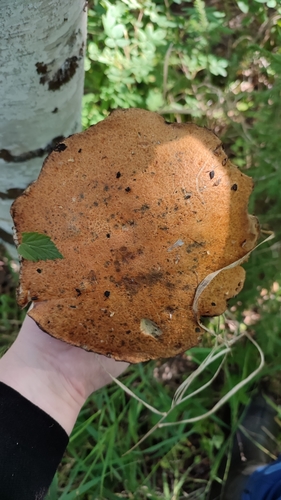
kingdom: Fungi
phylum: Basidiomycota
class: Agaricomycetes
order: Boletales
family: Boletaceae
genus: Leccinum
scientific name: Leccinum
